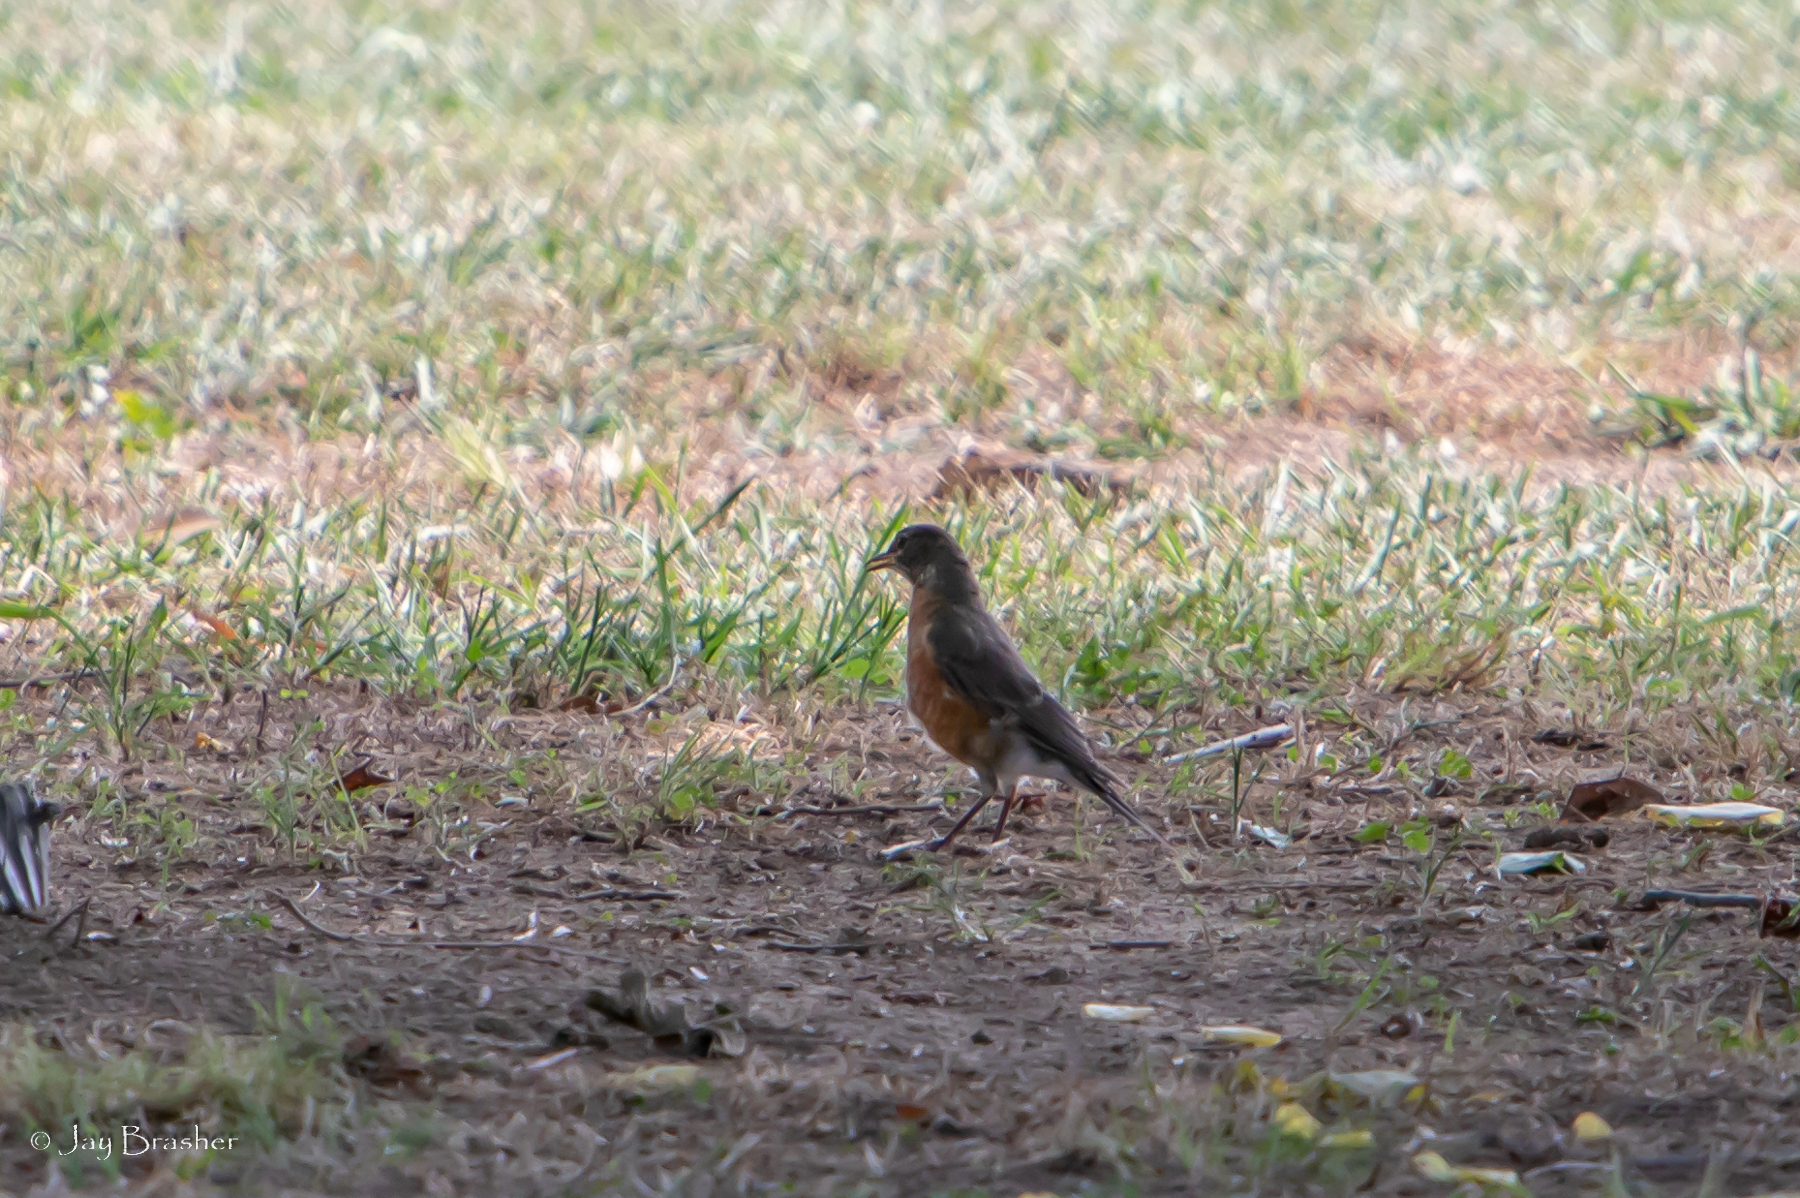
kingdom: Animalia
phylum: Chordata
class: Aves
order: Passeriformes
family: Turdidae
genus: Turdus
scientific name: Turdus migratorius
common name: American robin
